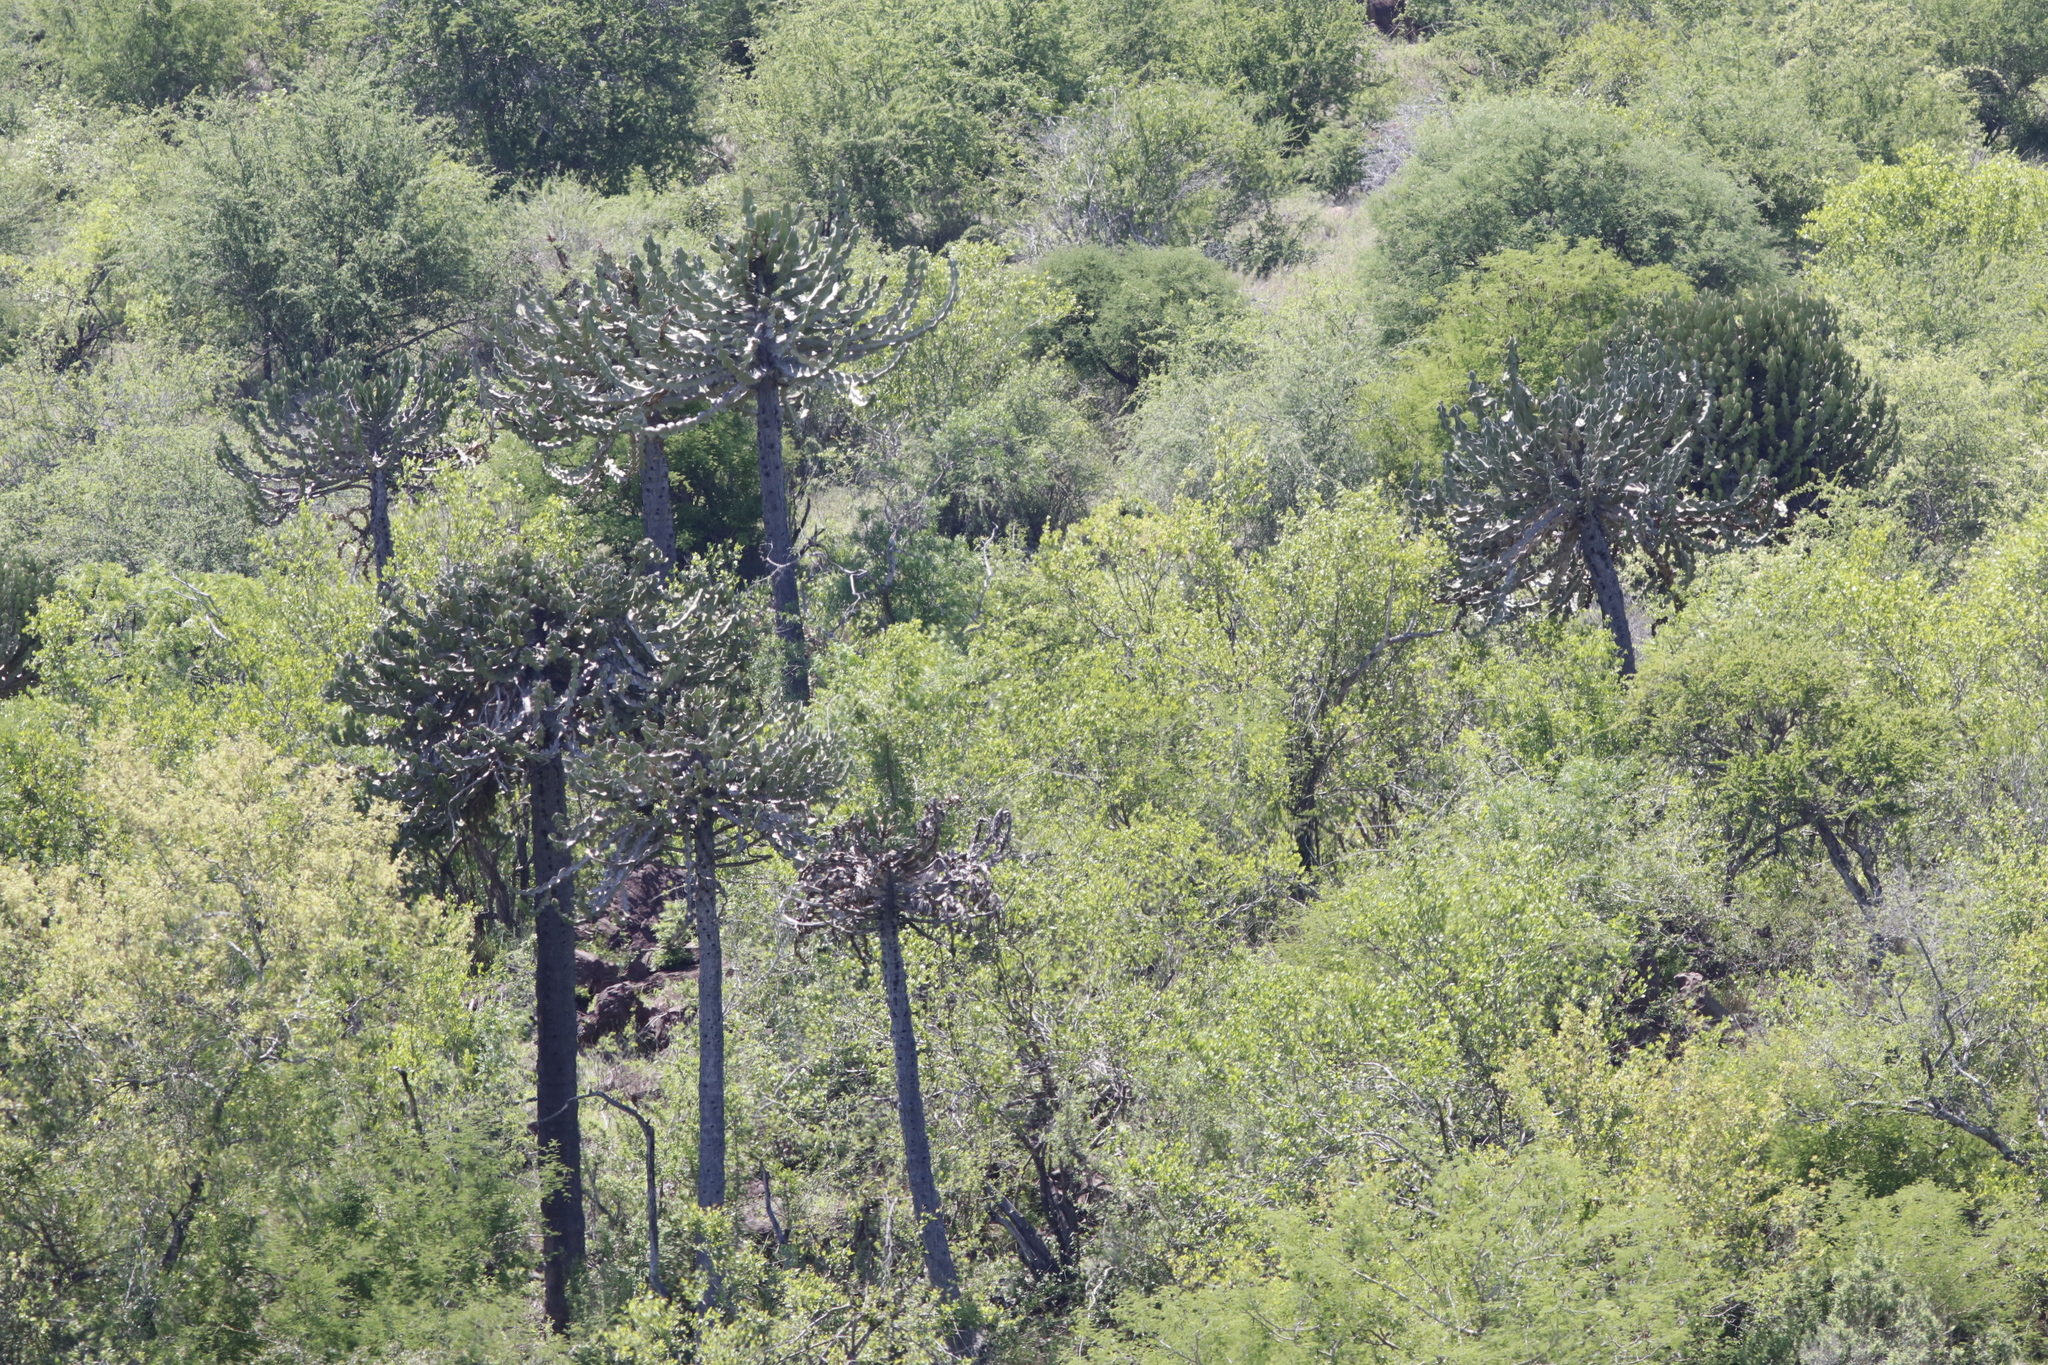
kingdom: Plantae
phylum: Tracheophyta
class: Magnoliopsida
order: Malpighiales
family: Euphorbiaceae
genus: Euphorbia
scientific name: Euphorbia cooperi
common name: Candelabra tree
